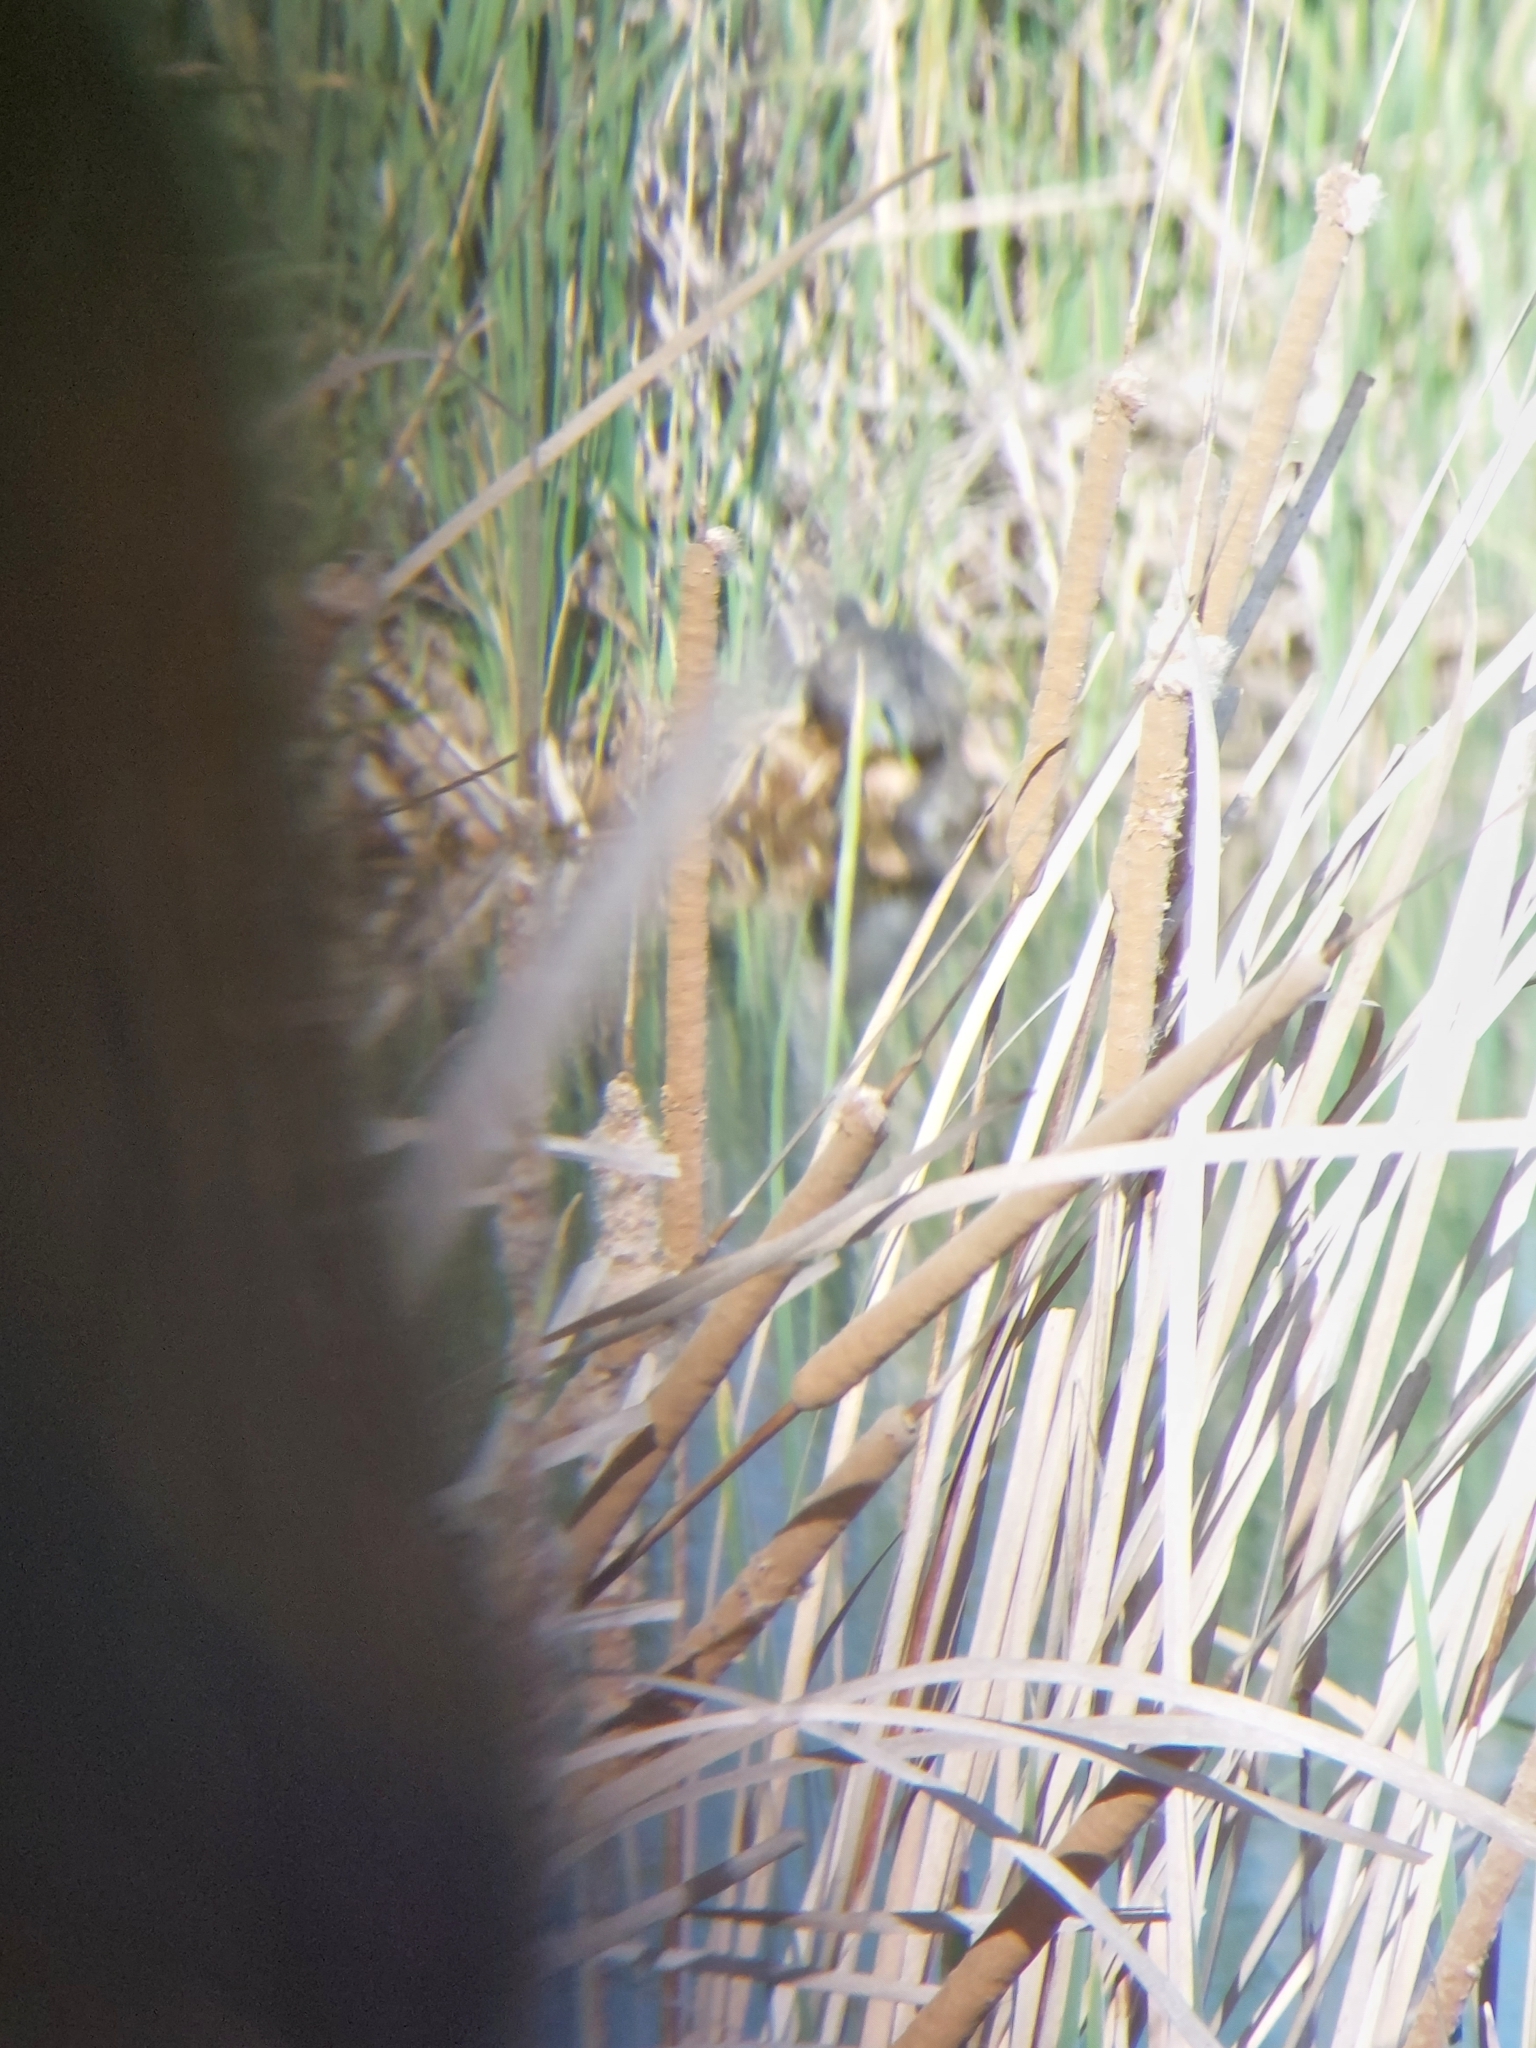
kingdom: Animalia
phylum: Chordata
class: Testudines
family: Geoemydidae
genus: Mauremys
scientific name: Mauremys rivulata
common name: Western caspian turtle
